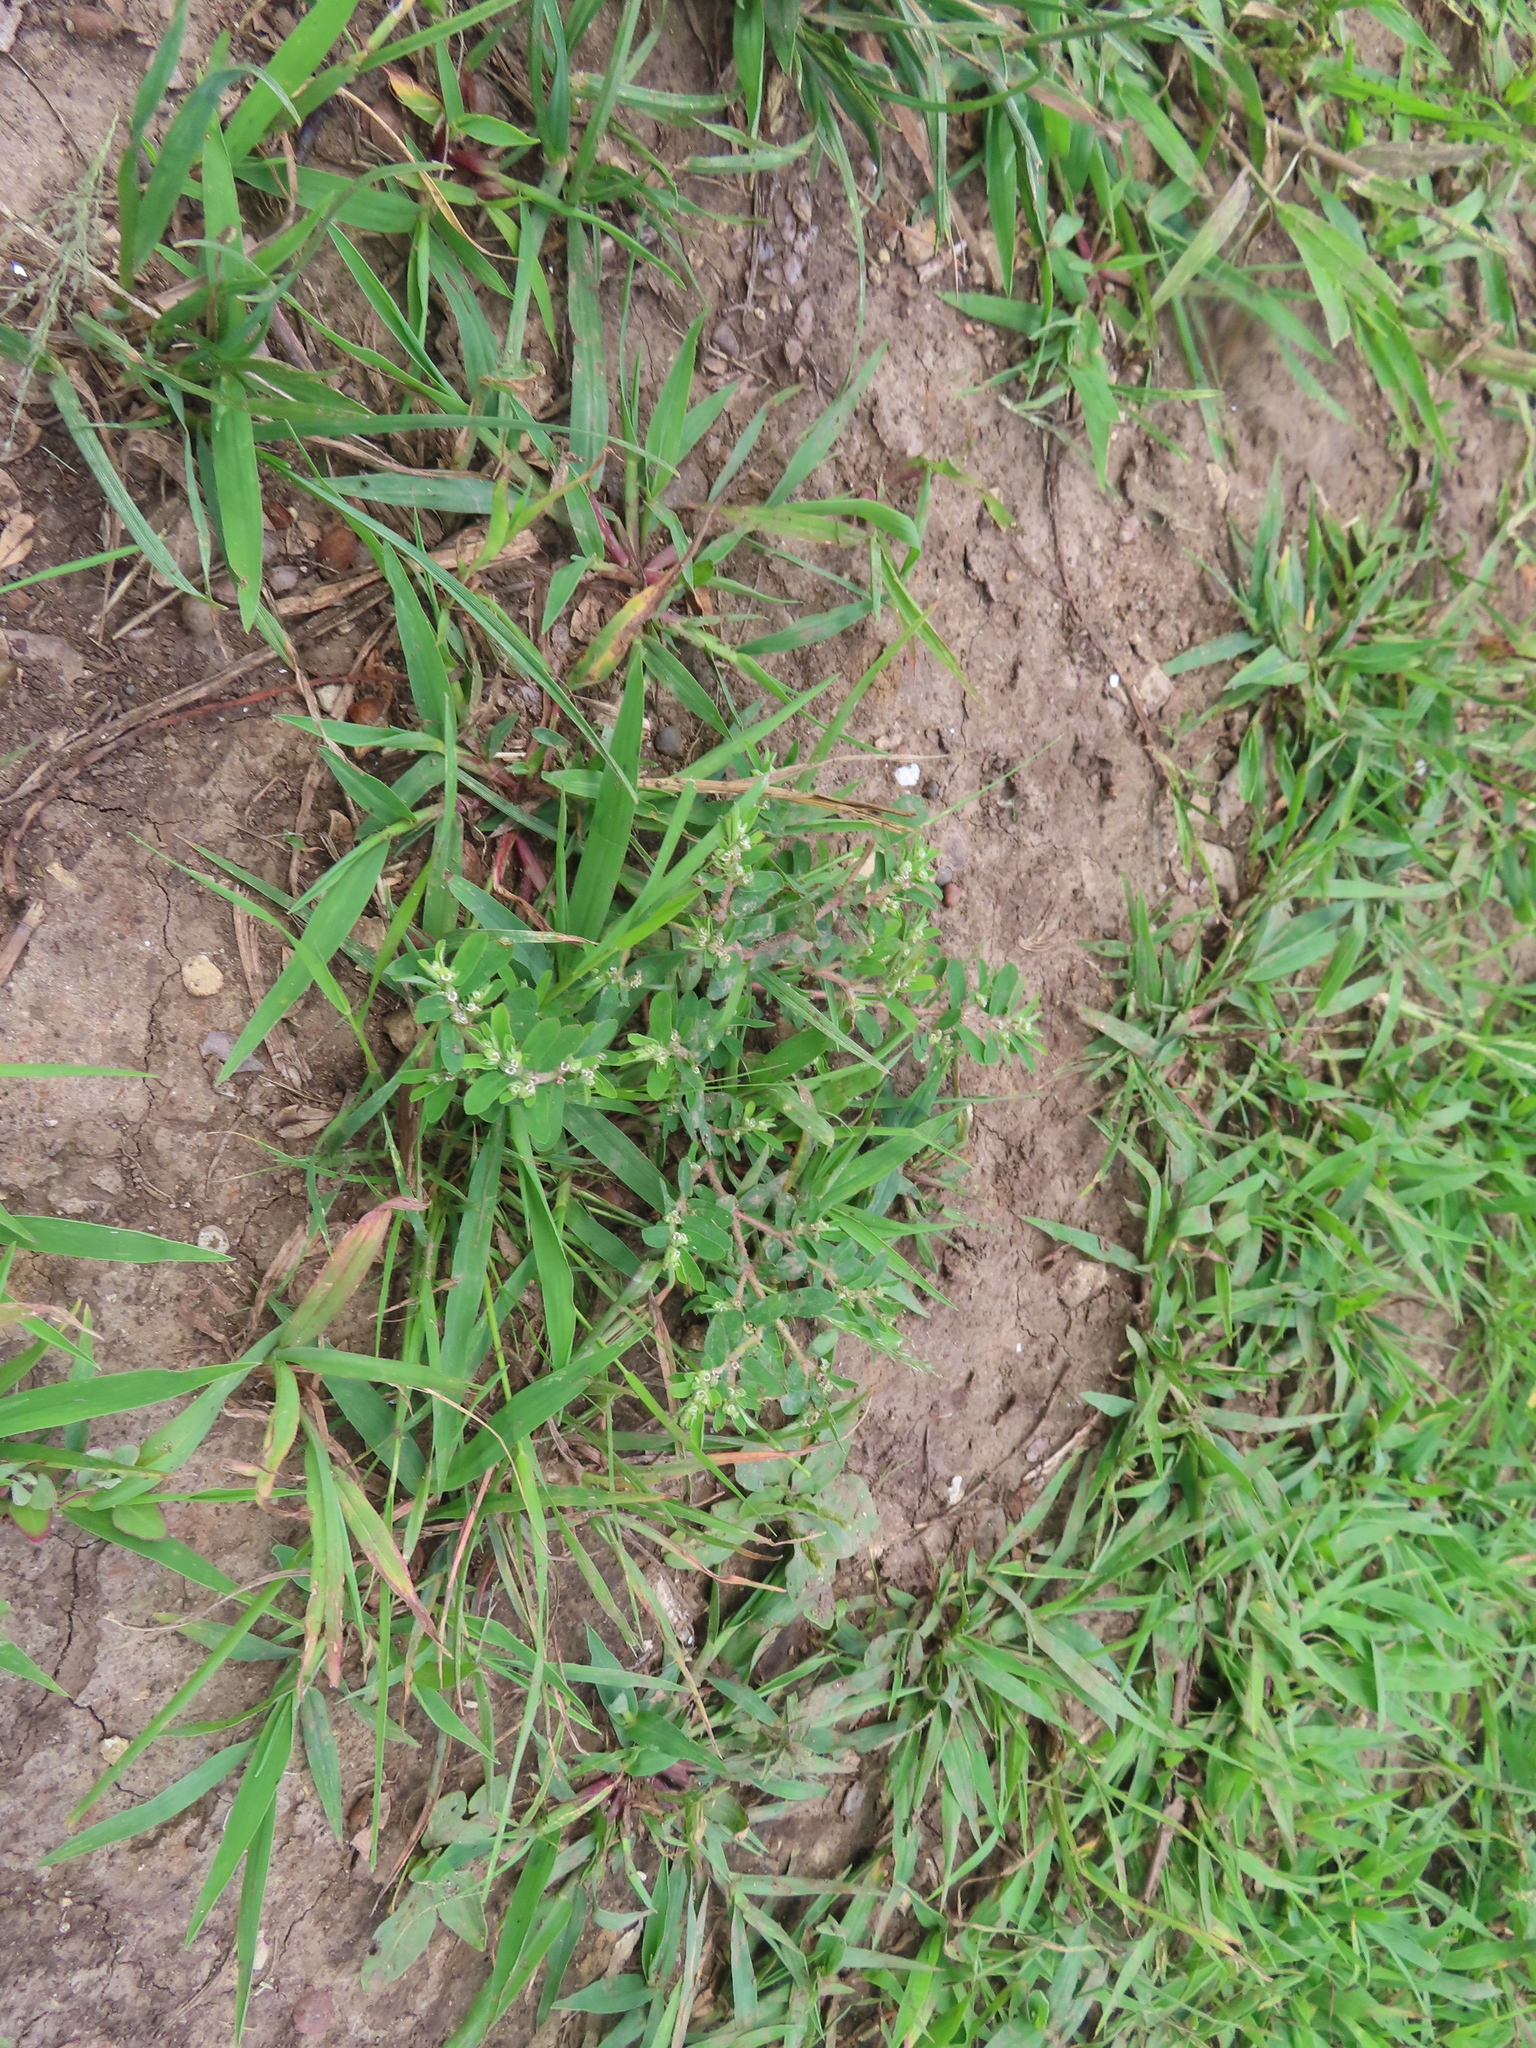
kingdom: Plantae
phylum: Tracheophyta
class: Magnoliopsida
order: Malpighiales
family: Euphorbiaceae
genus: Euphorbia
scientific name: Euphorbia maculata
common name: Spotted spurge
